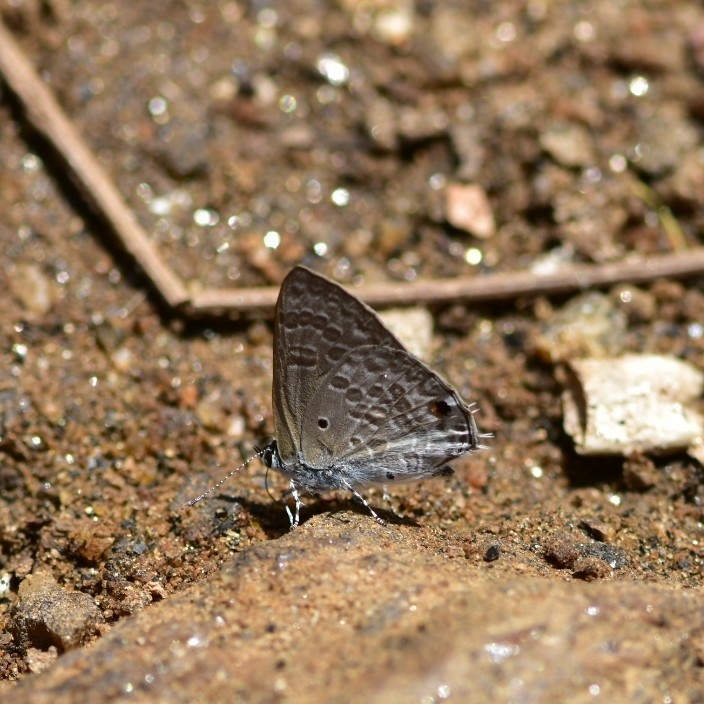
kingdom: Animalia
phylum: Arthropoda
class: Insecta
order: Lepidoptera
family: Lycaenidae
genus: Anthene
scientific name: Anthene lycaenina
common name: Pointed ciliate blue
